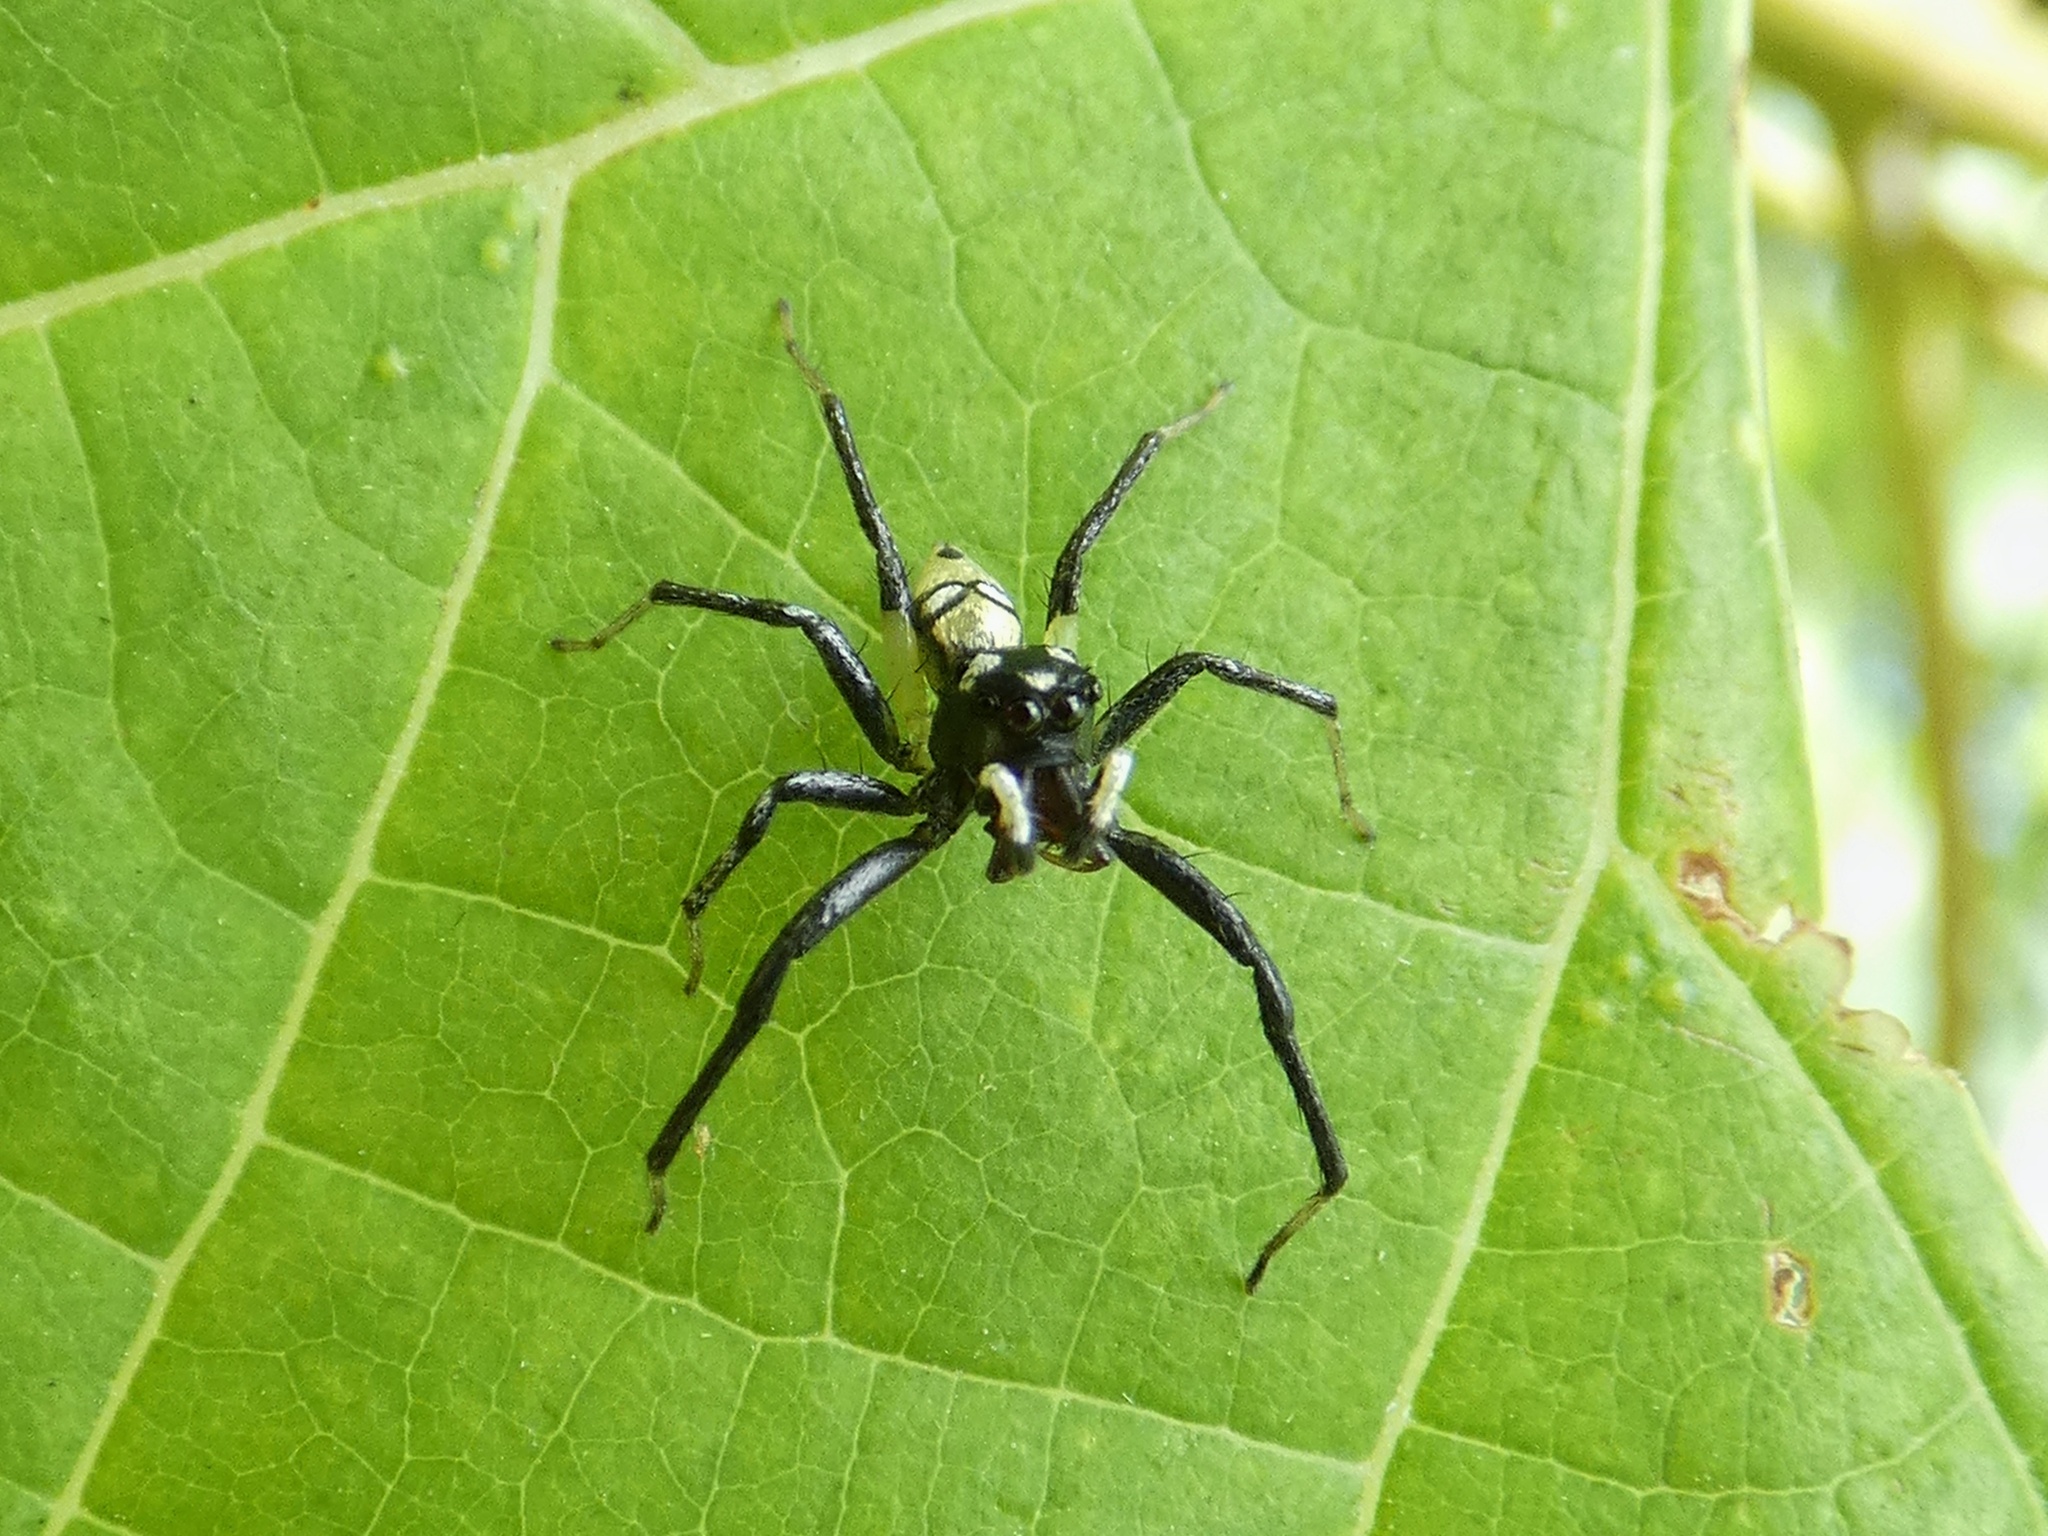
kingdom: Animalia
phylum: Arthropoda
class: Arachnida
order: Araneae
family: Salticidae
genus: Phintella
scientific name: Phintella piatensis
